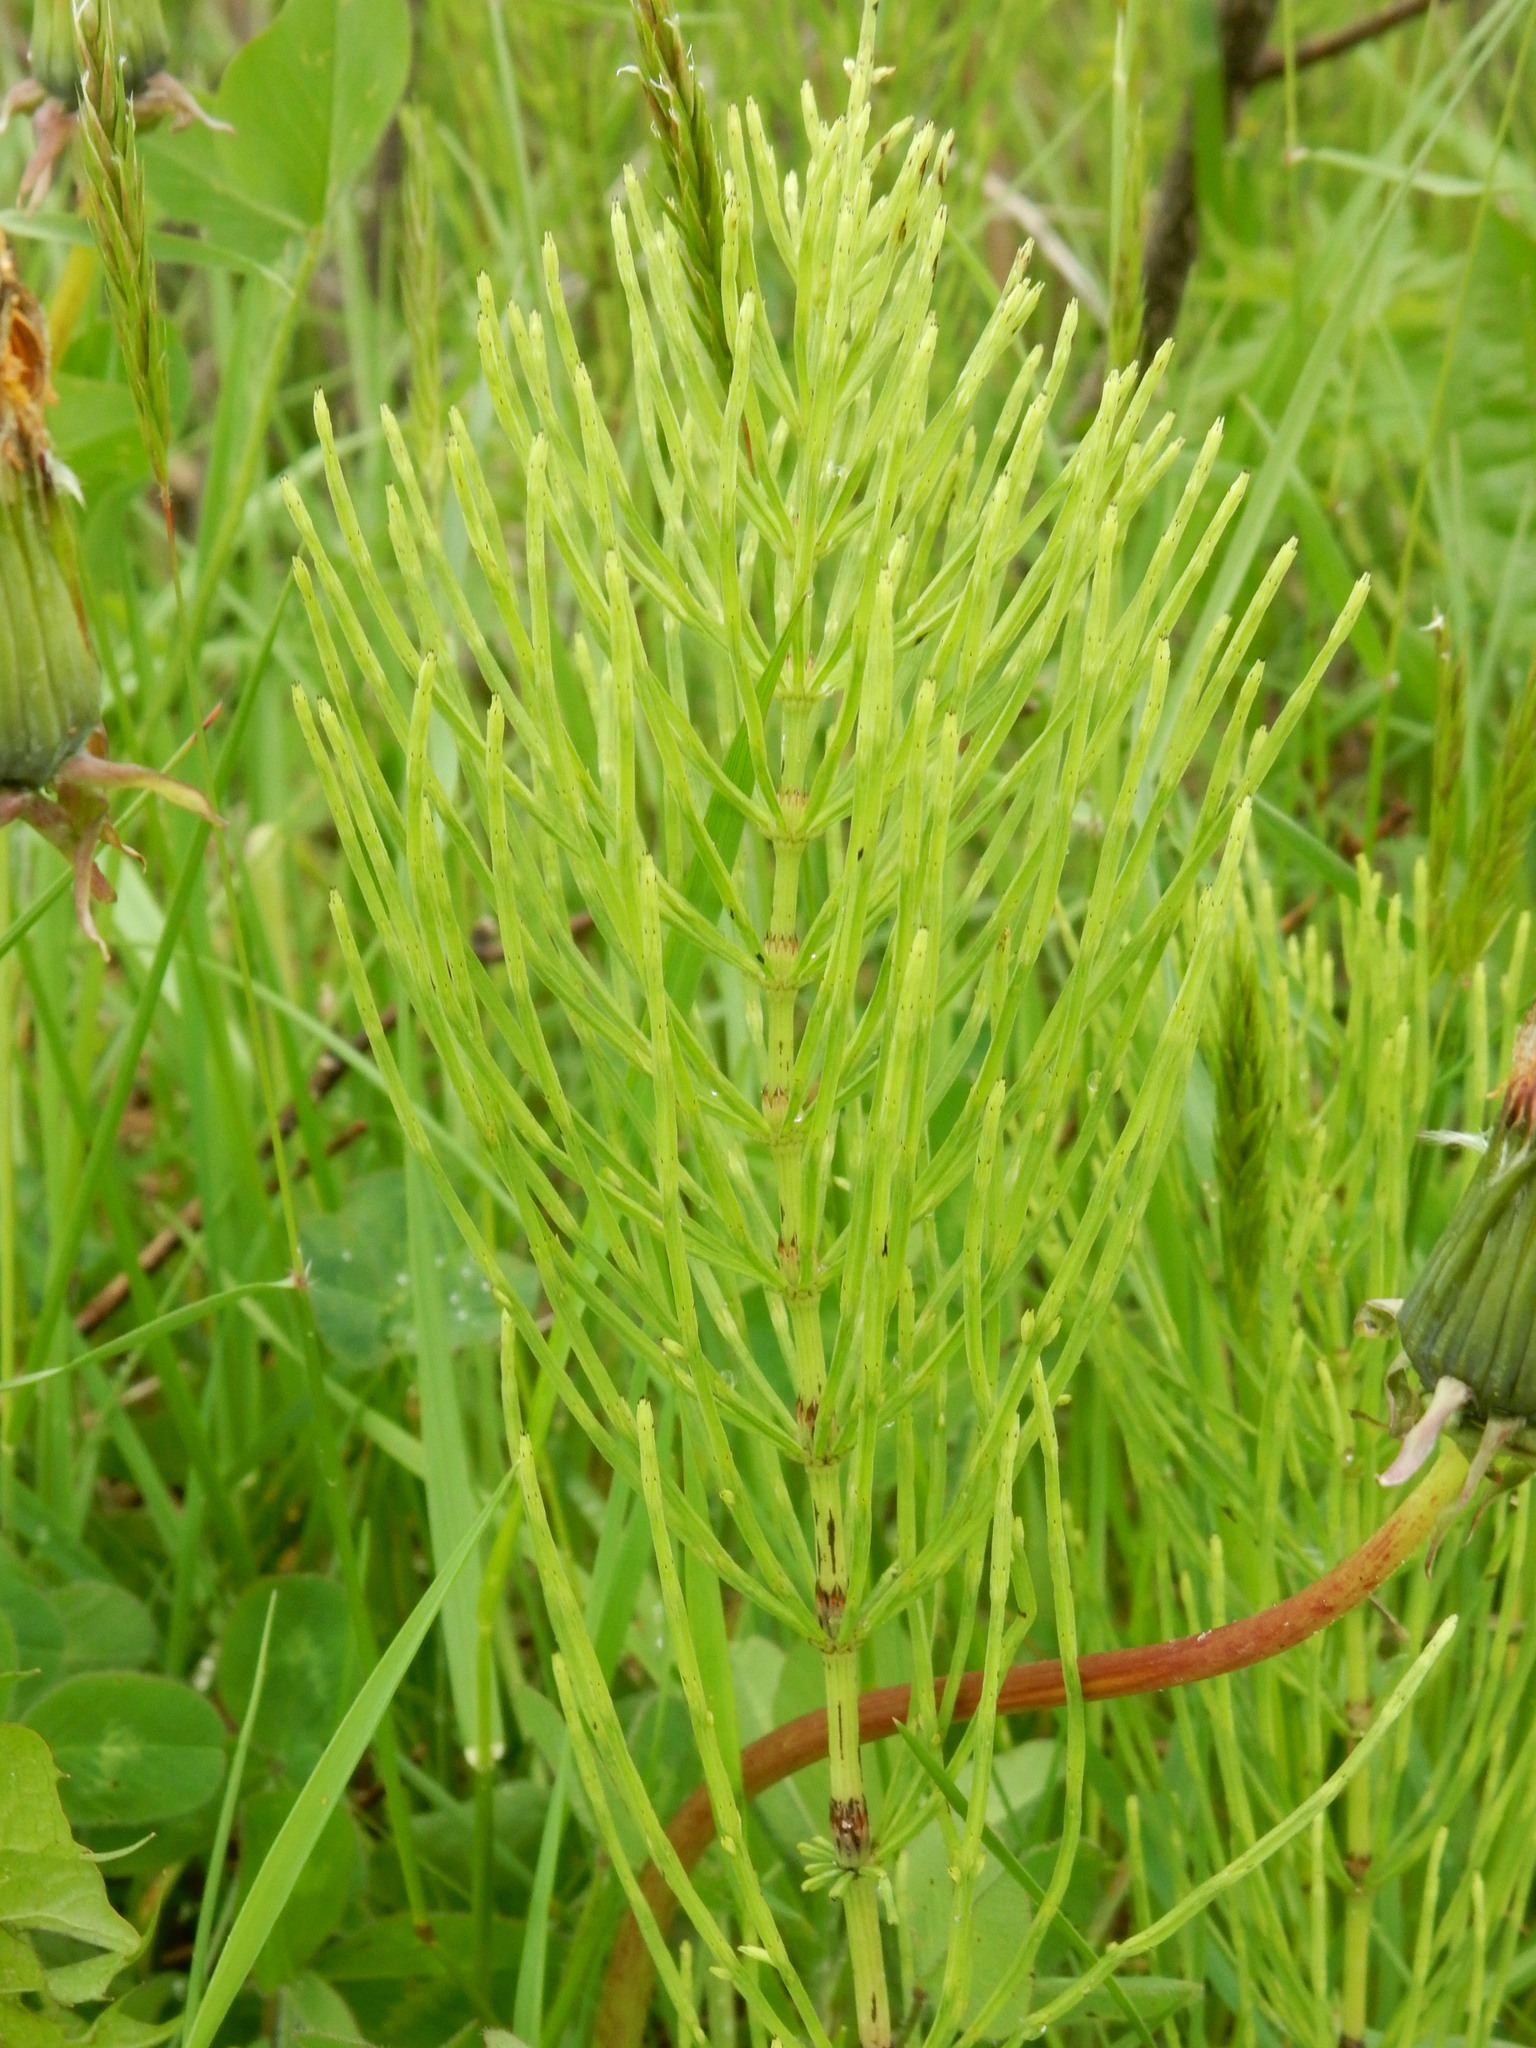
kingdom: Plantae
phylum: Tracheophyta
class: Polypodiopsida
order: Equisetales
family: Equisetaceae
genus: Equisetum
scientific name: Equisetum arvense
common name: Field horsetail
